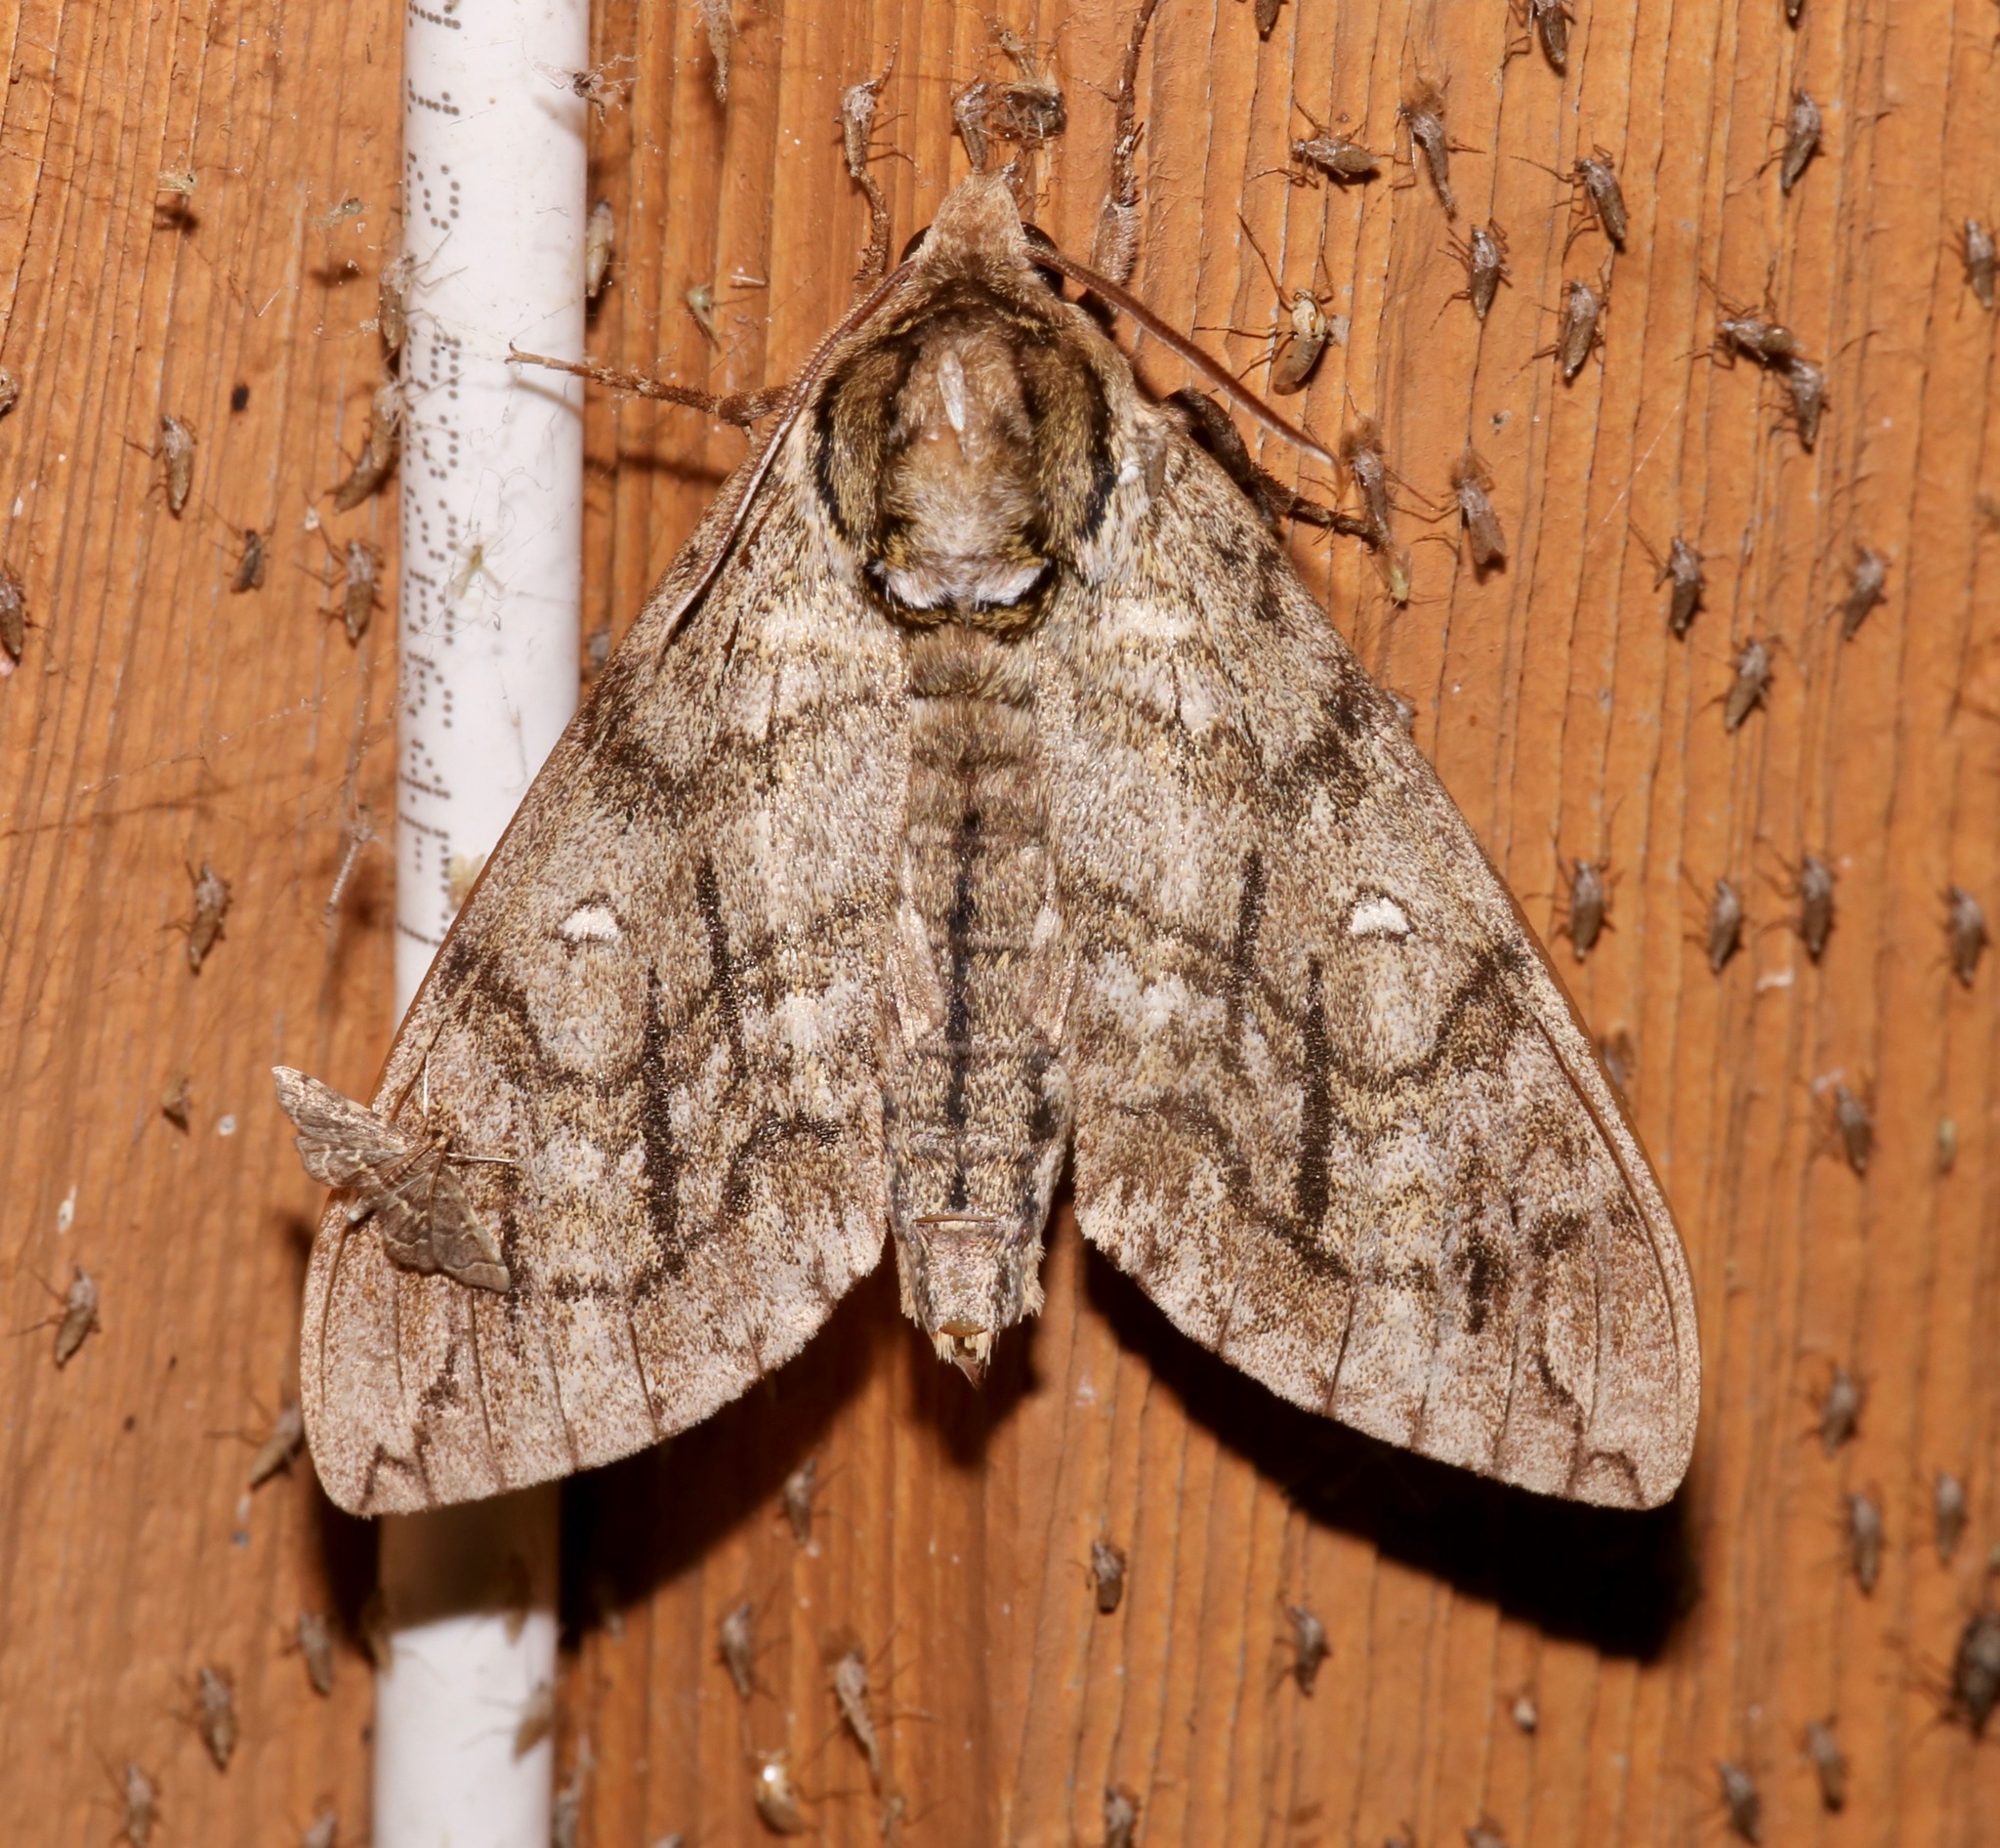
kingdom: Animalia
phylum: Arthropoda
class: Insecta
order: Lepidoptera
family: Sphingidae
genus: Ceratomia
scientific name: Ceratomia undulosa
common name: Waved sphinx
